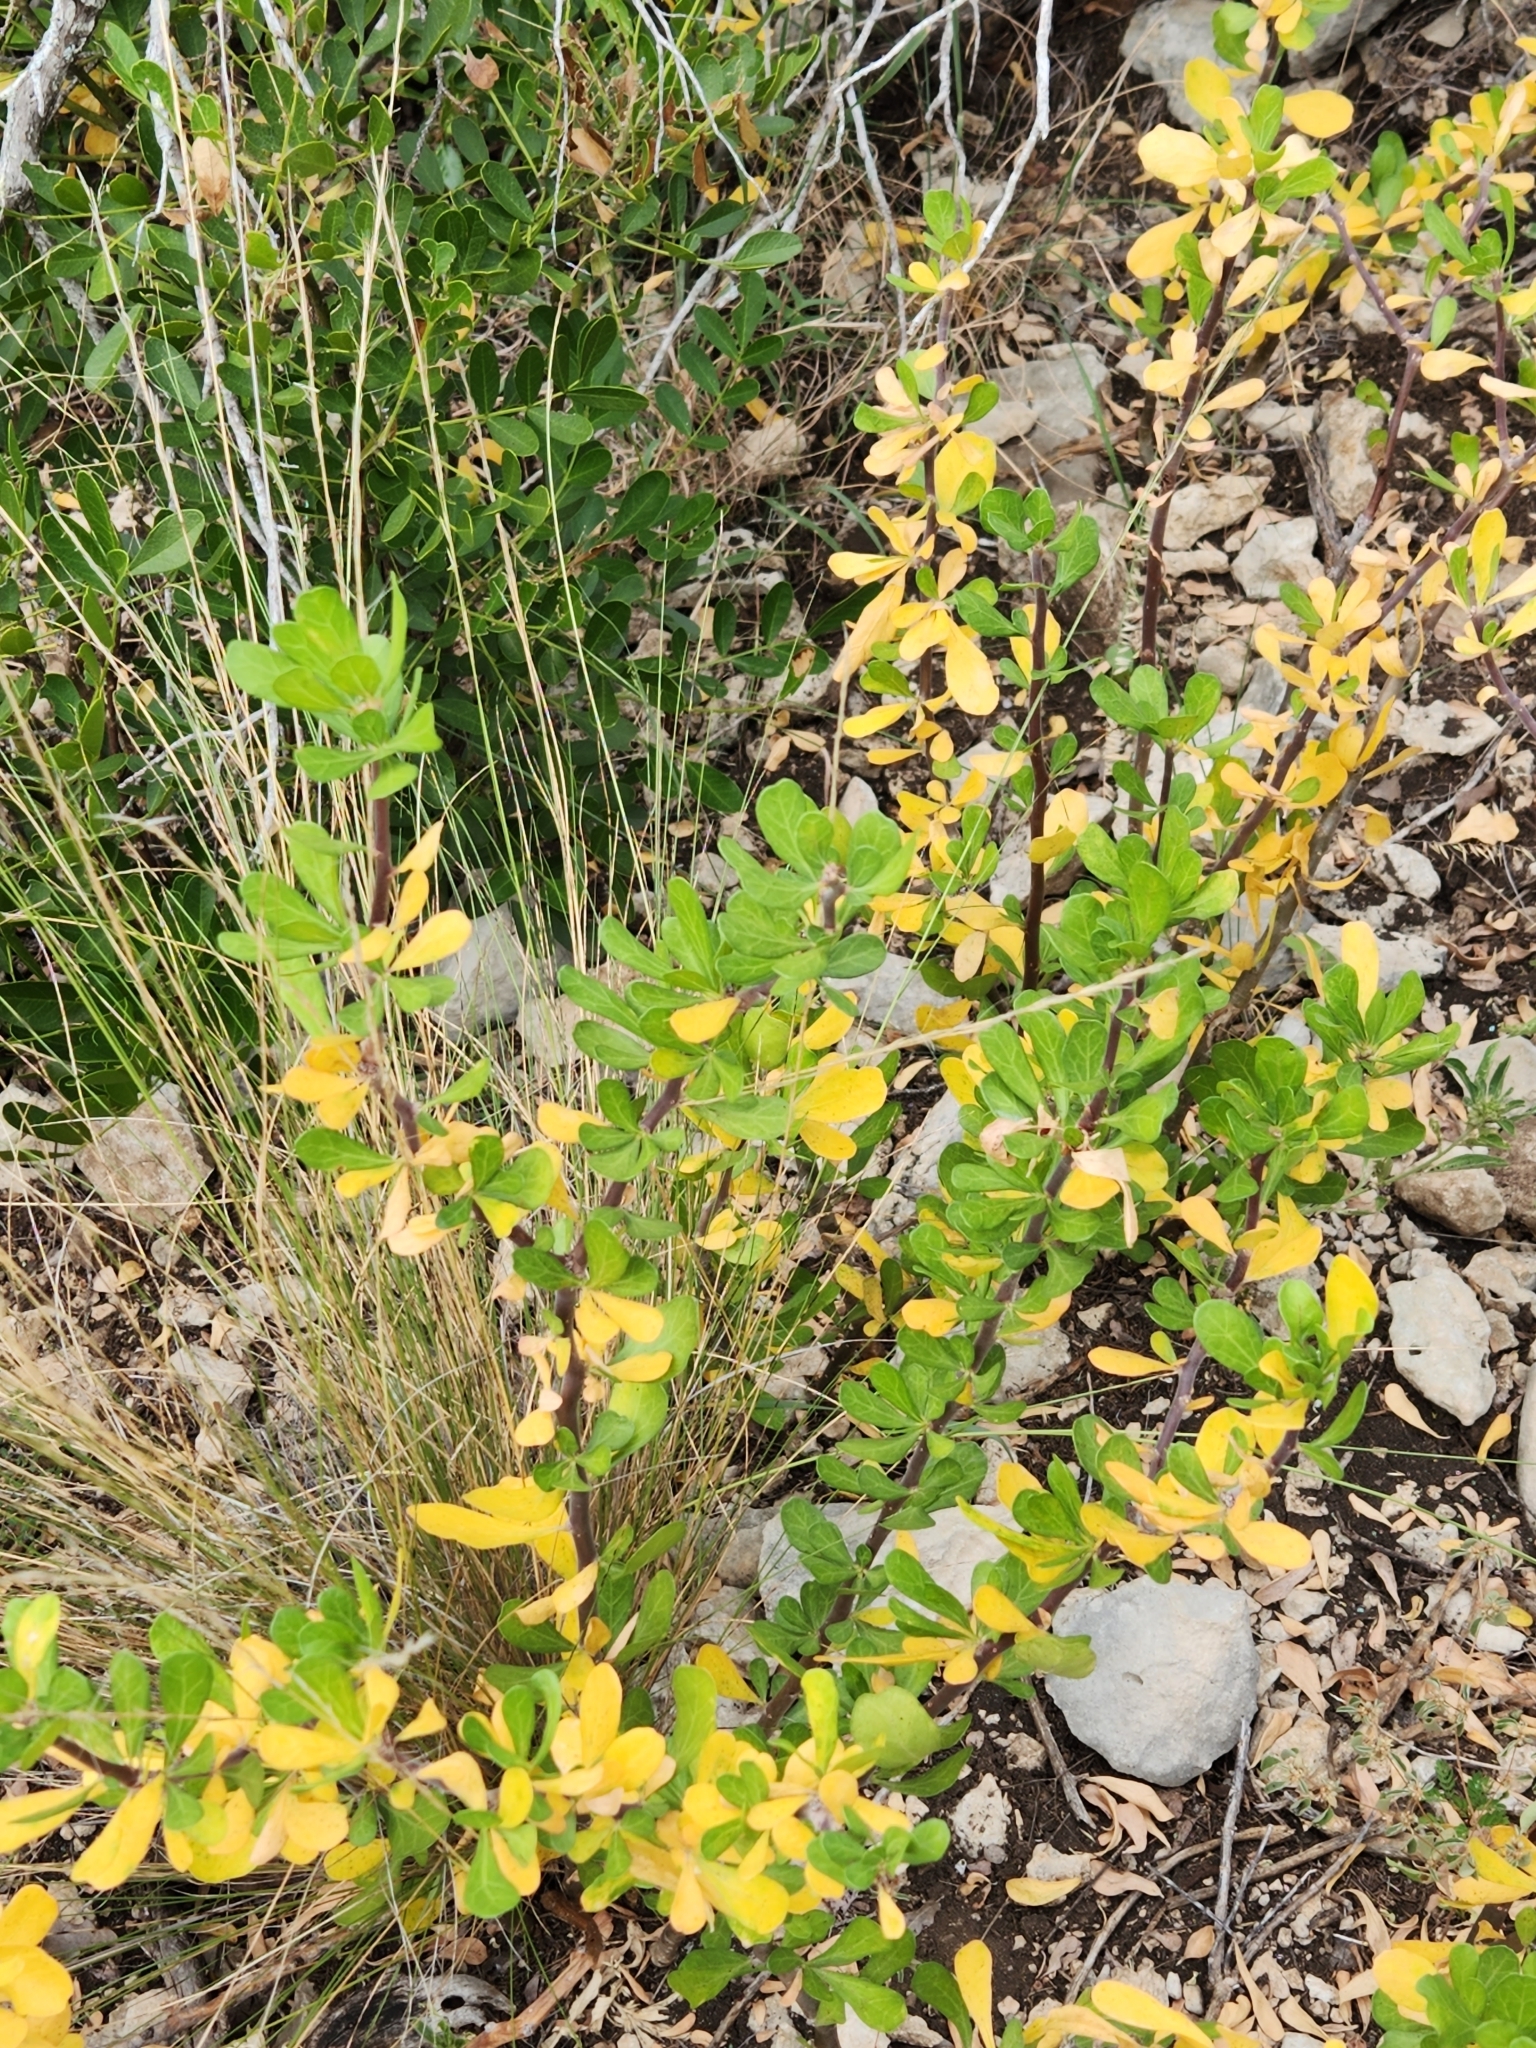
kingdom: Plantae
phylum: Tracheophyta
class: Magnoliopsida
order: Malpighiales
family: Euphorbiaceae
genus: Jatropha
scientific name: Jatropha dioica
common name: Leatherstem
